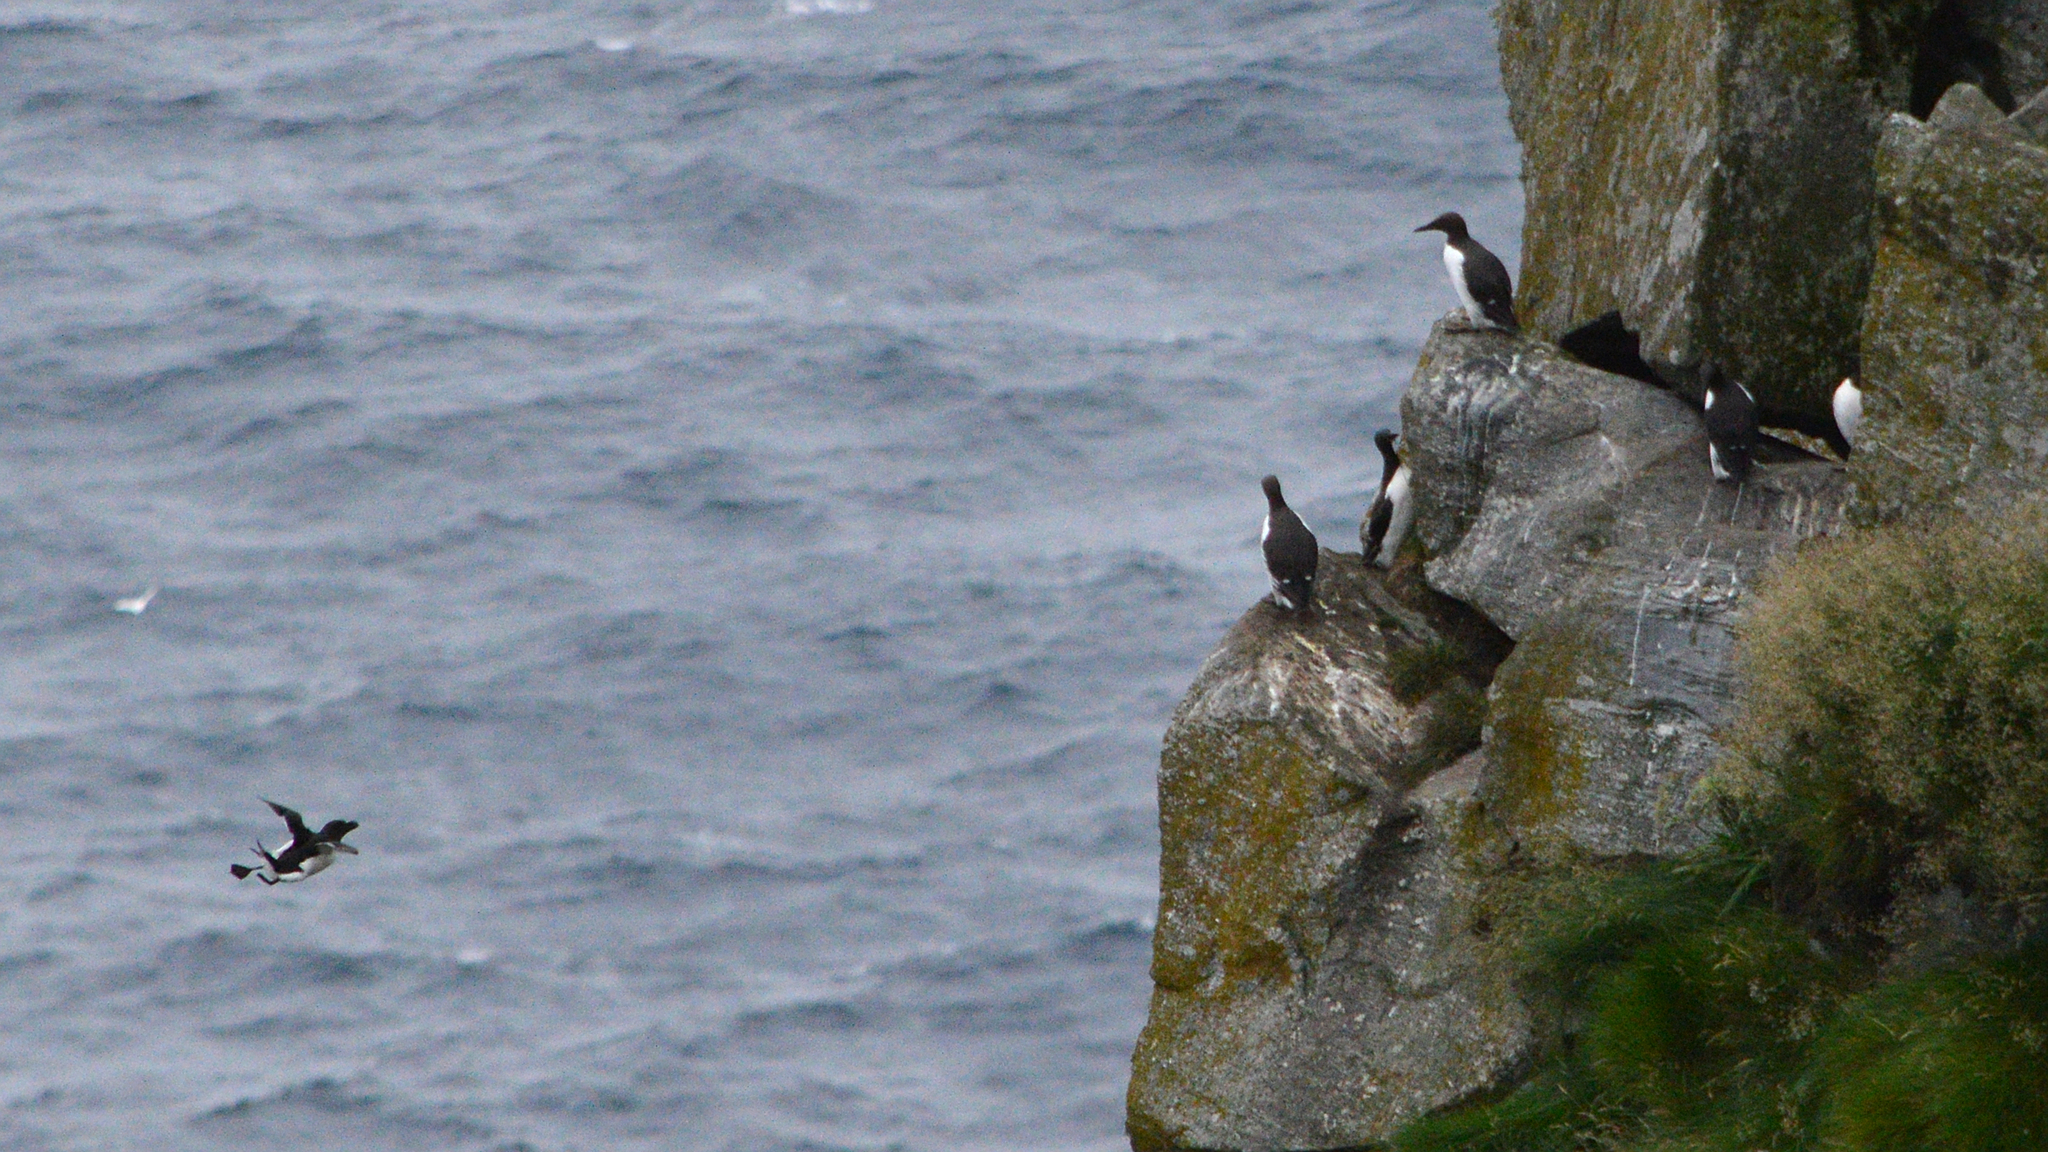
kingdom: Animalia
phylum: Chordata
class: Aves
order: Charadriiformes
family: Alcidae
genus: Alca
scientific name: Alca torda
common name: Razorbill
